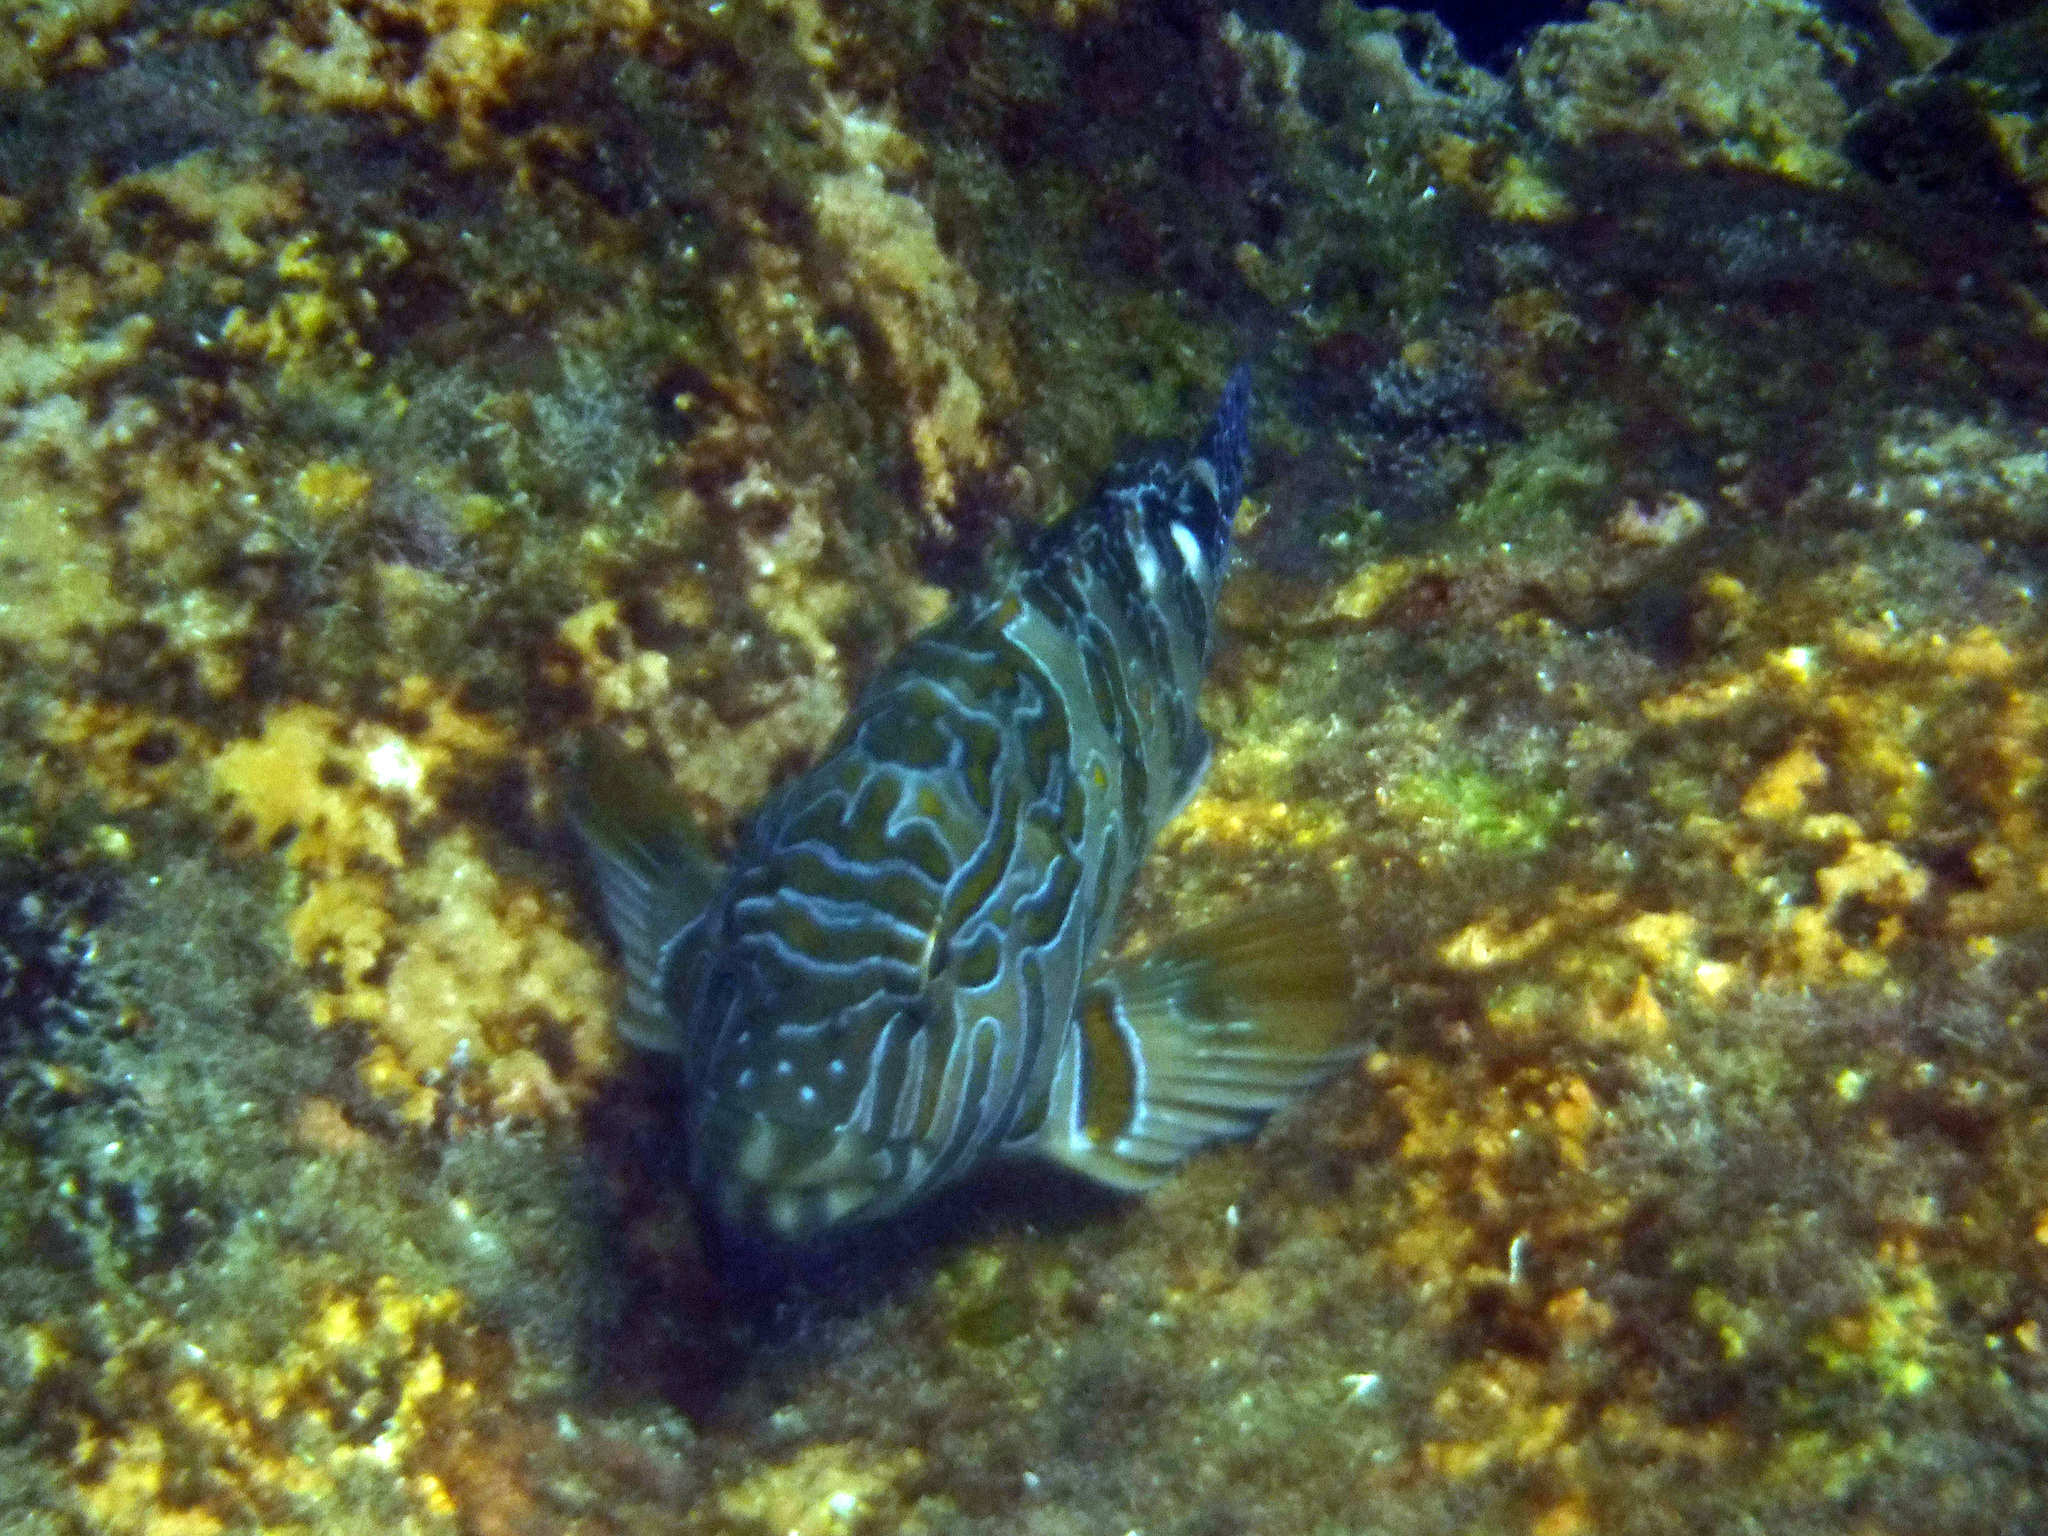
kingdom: Animalia
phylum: Chordata
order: Perciformes
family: Cirrhitidae
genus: Cirrhitus
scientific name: Cirrhitus rivulatus
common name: Giant hawkfish
